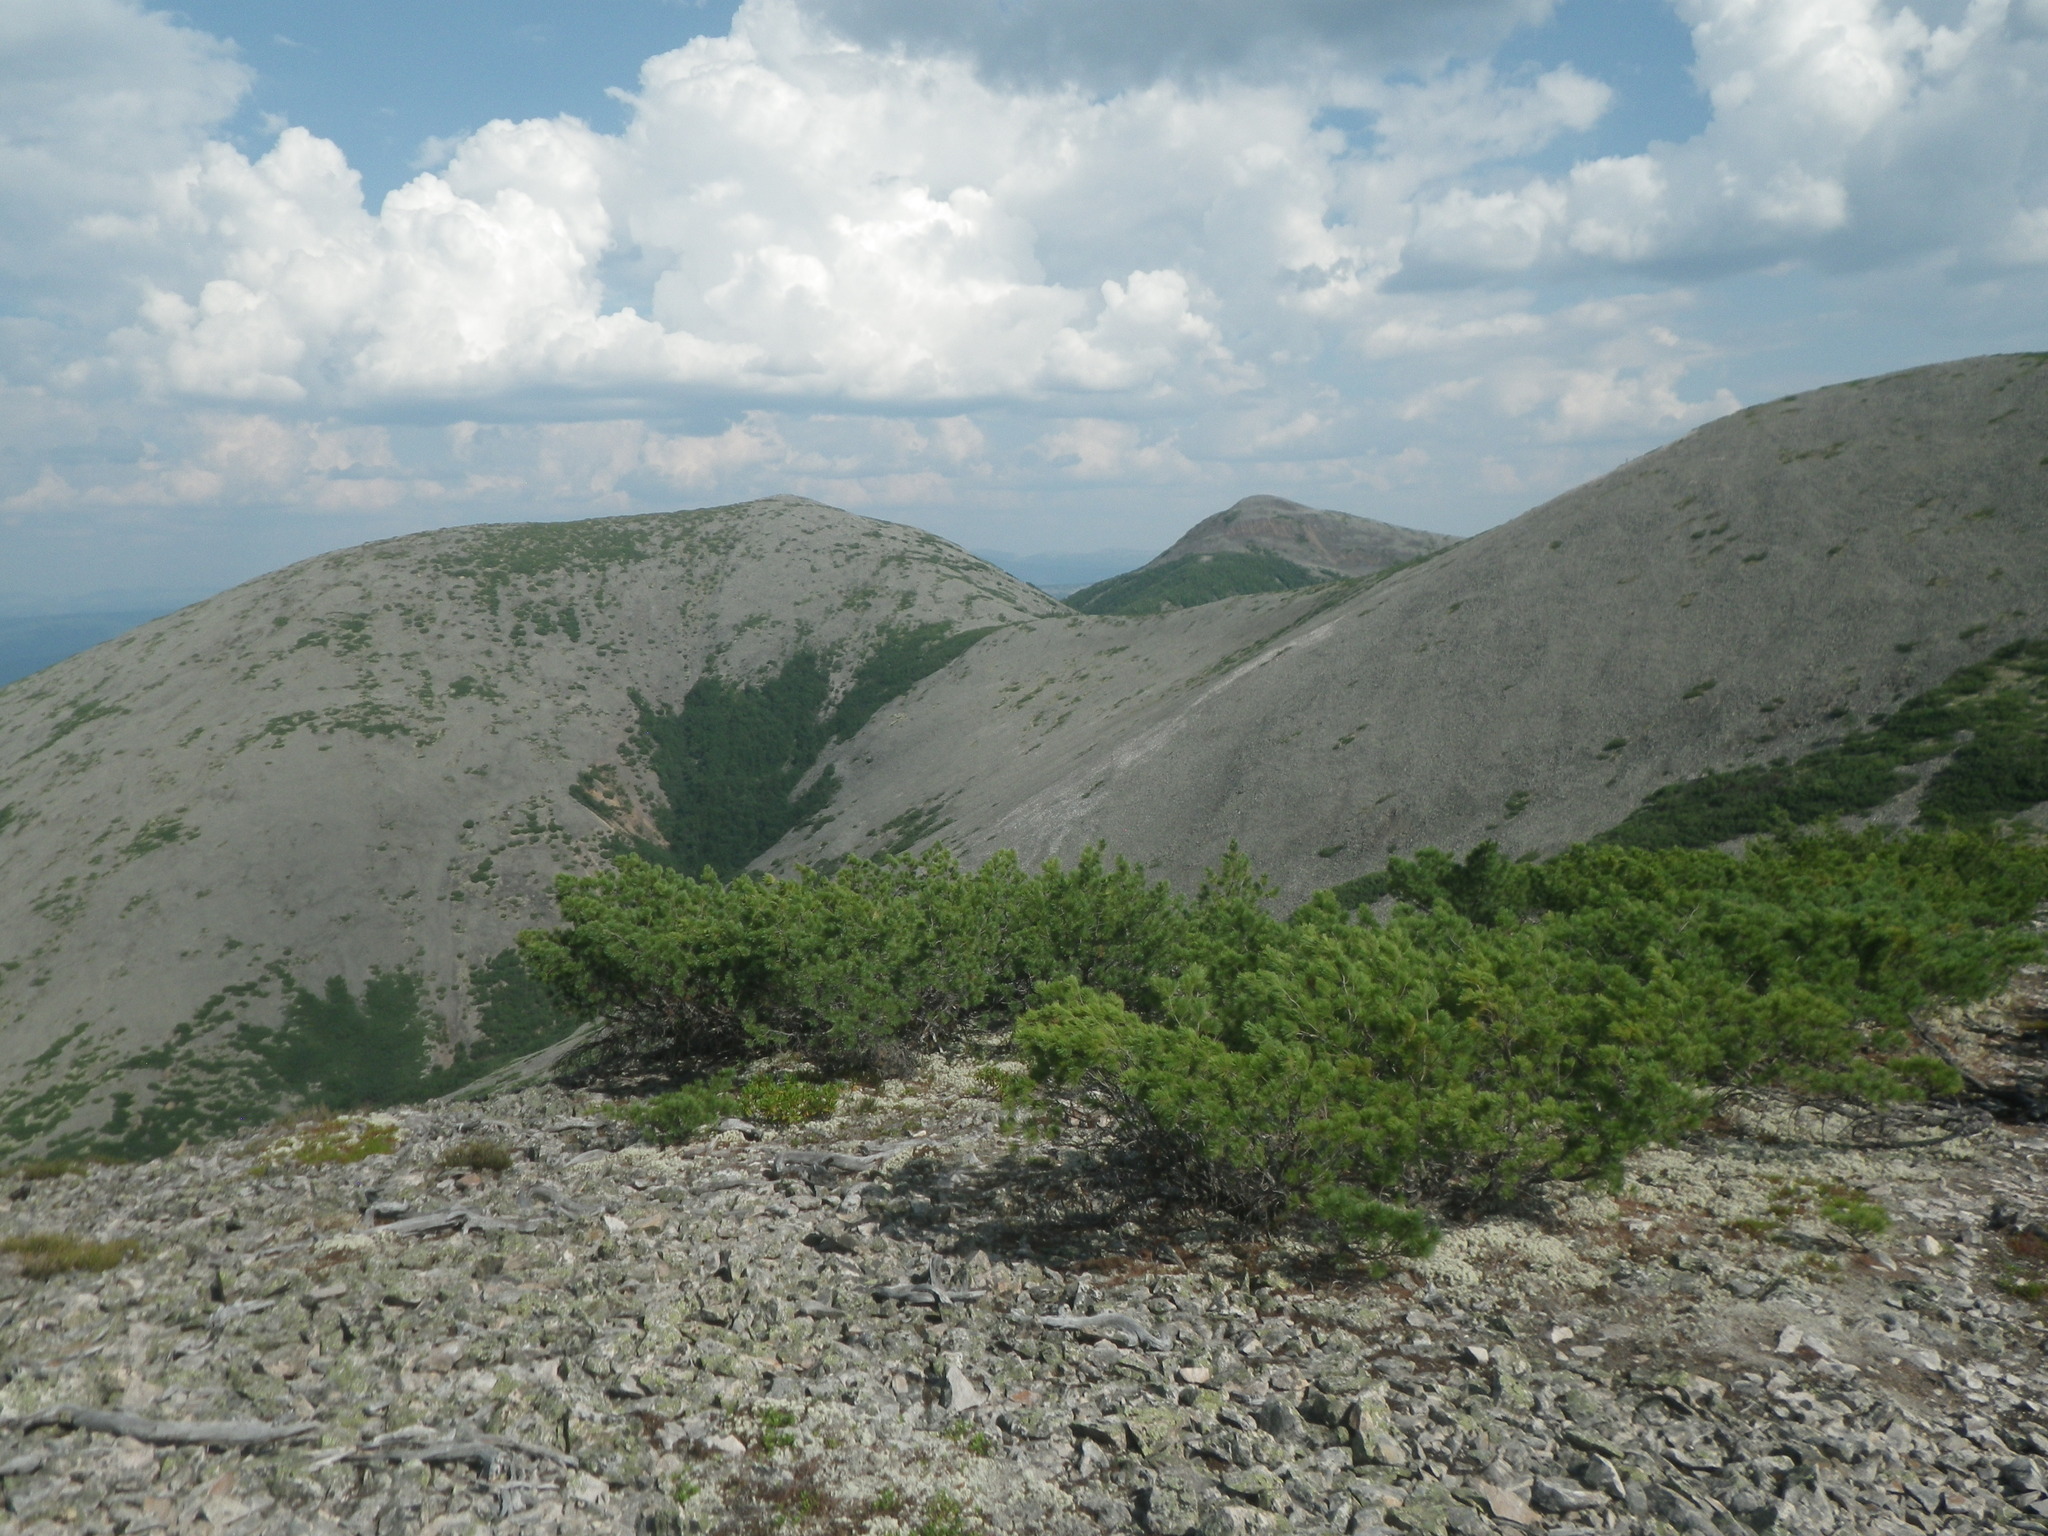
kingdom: Plantae
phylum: Tracheophyta
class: Pinopsida
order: Pinales
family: Pinaceae
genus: Pinus
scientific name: Pinus pumila
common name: Dwarf siberian pine
